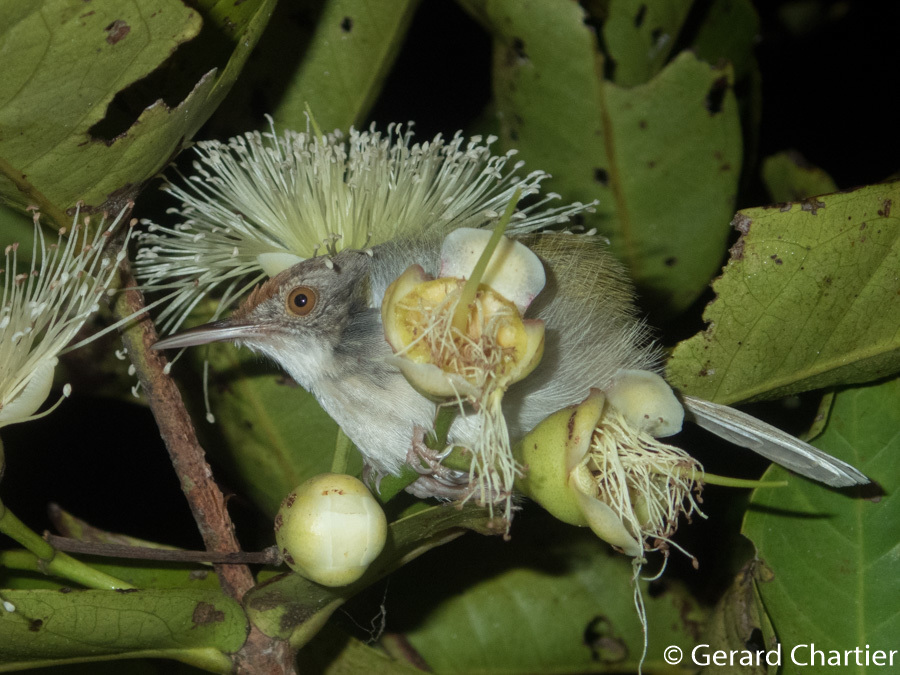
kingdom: Animalia
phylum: Chordata
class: Aves
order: Passeriformes
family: Cisticolidae
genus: Orthotomus
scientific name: Orthotomus sutorius
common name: Common tailorbird
